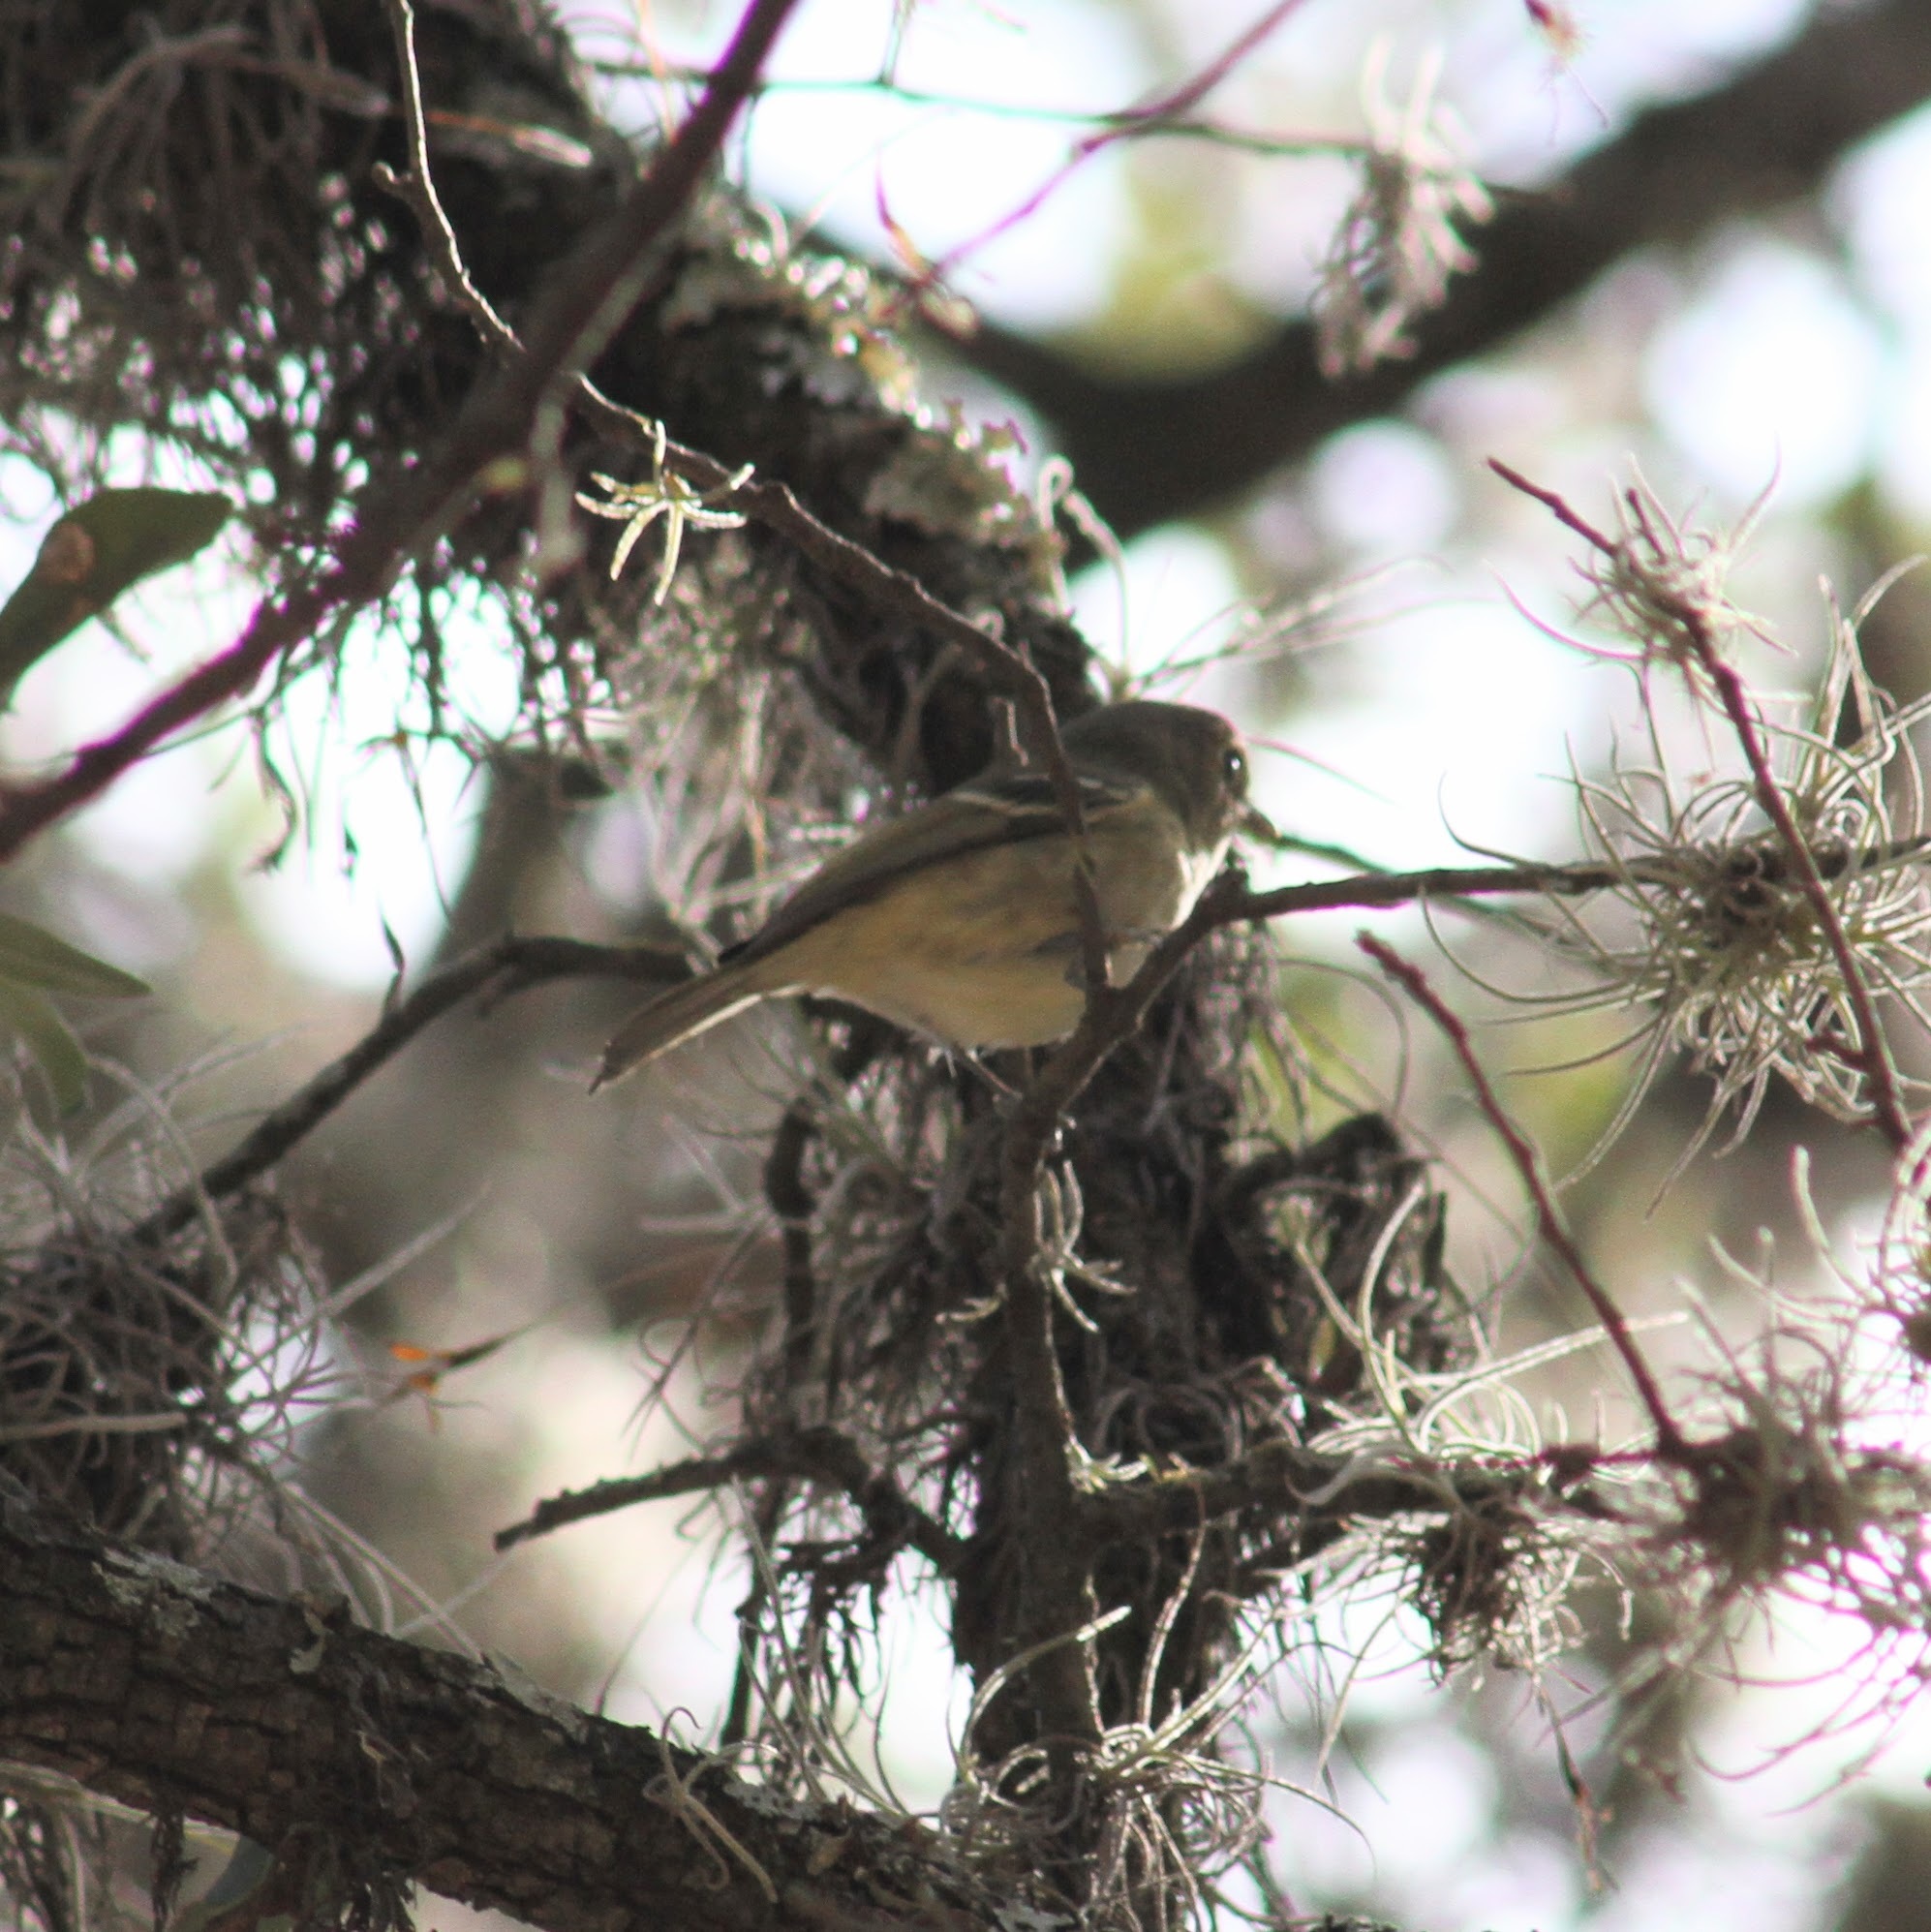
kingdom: Animalia
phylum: Chordata
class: Aves
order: Passeriformes
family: Vireonidae
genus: Vireo
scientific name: Vireo huttoni
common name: Hutton's vireo
